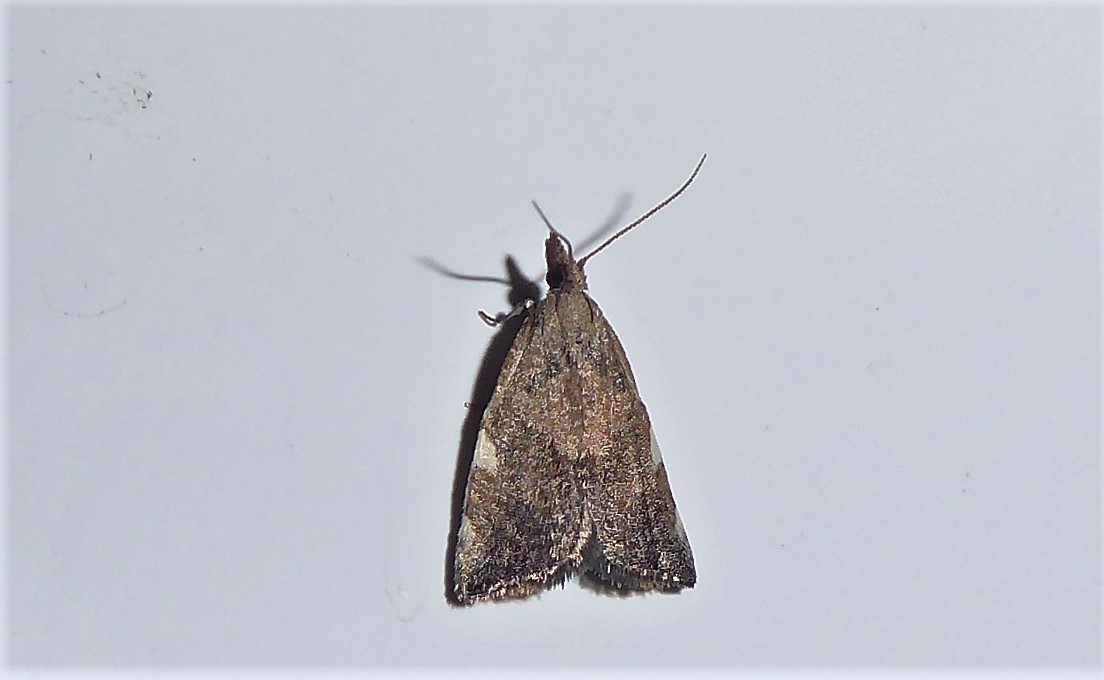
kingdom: Animalia
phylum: Arthropoda
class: Insecta
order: Lepidoptera
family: Tortricidae
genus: Catamacta
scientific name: Catamacta gavisana
